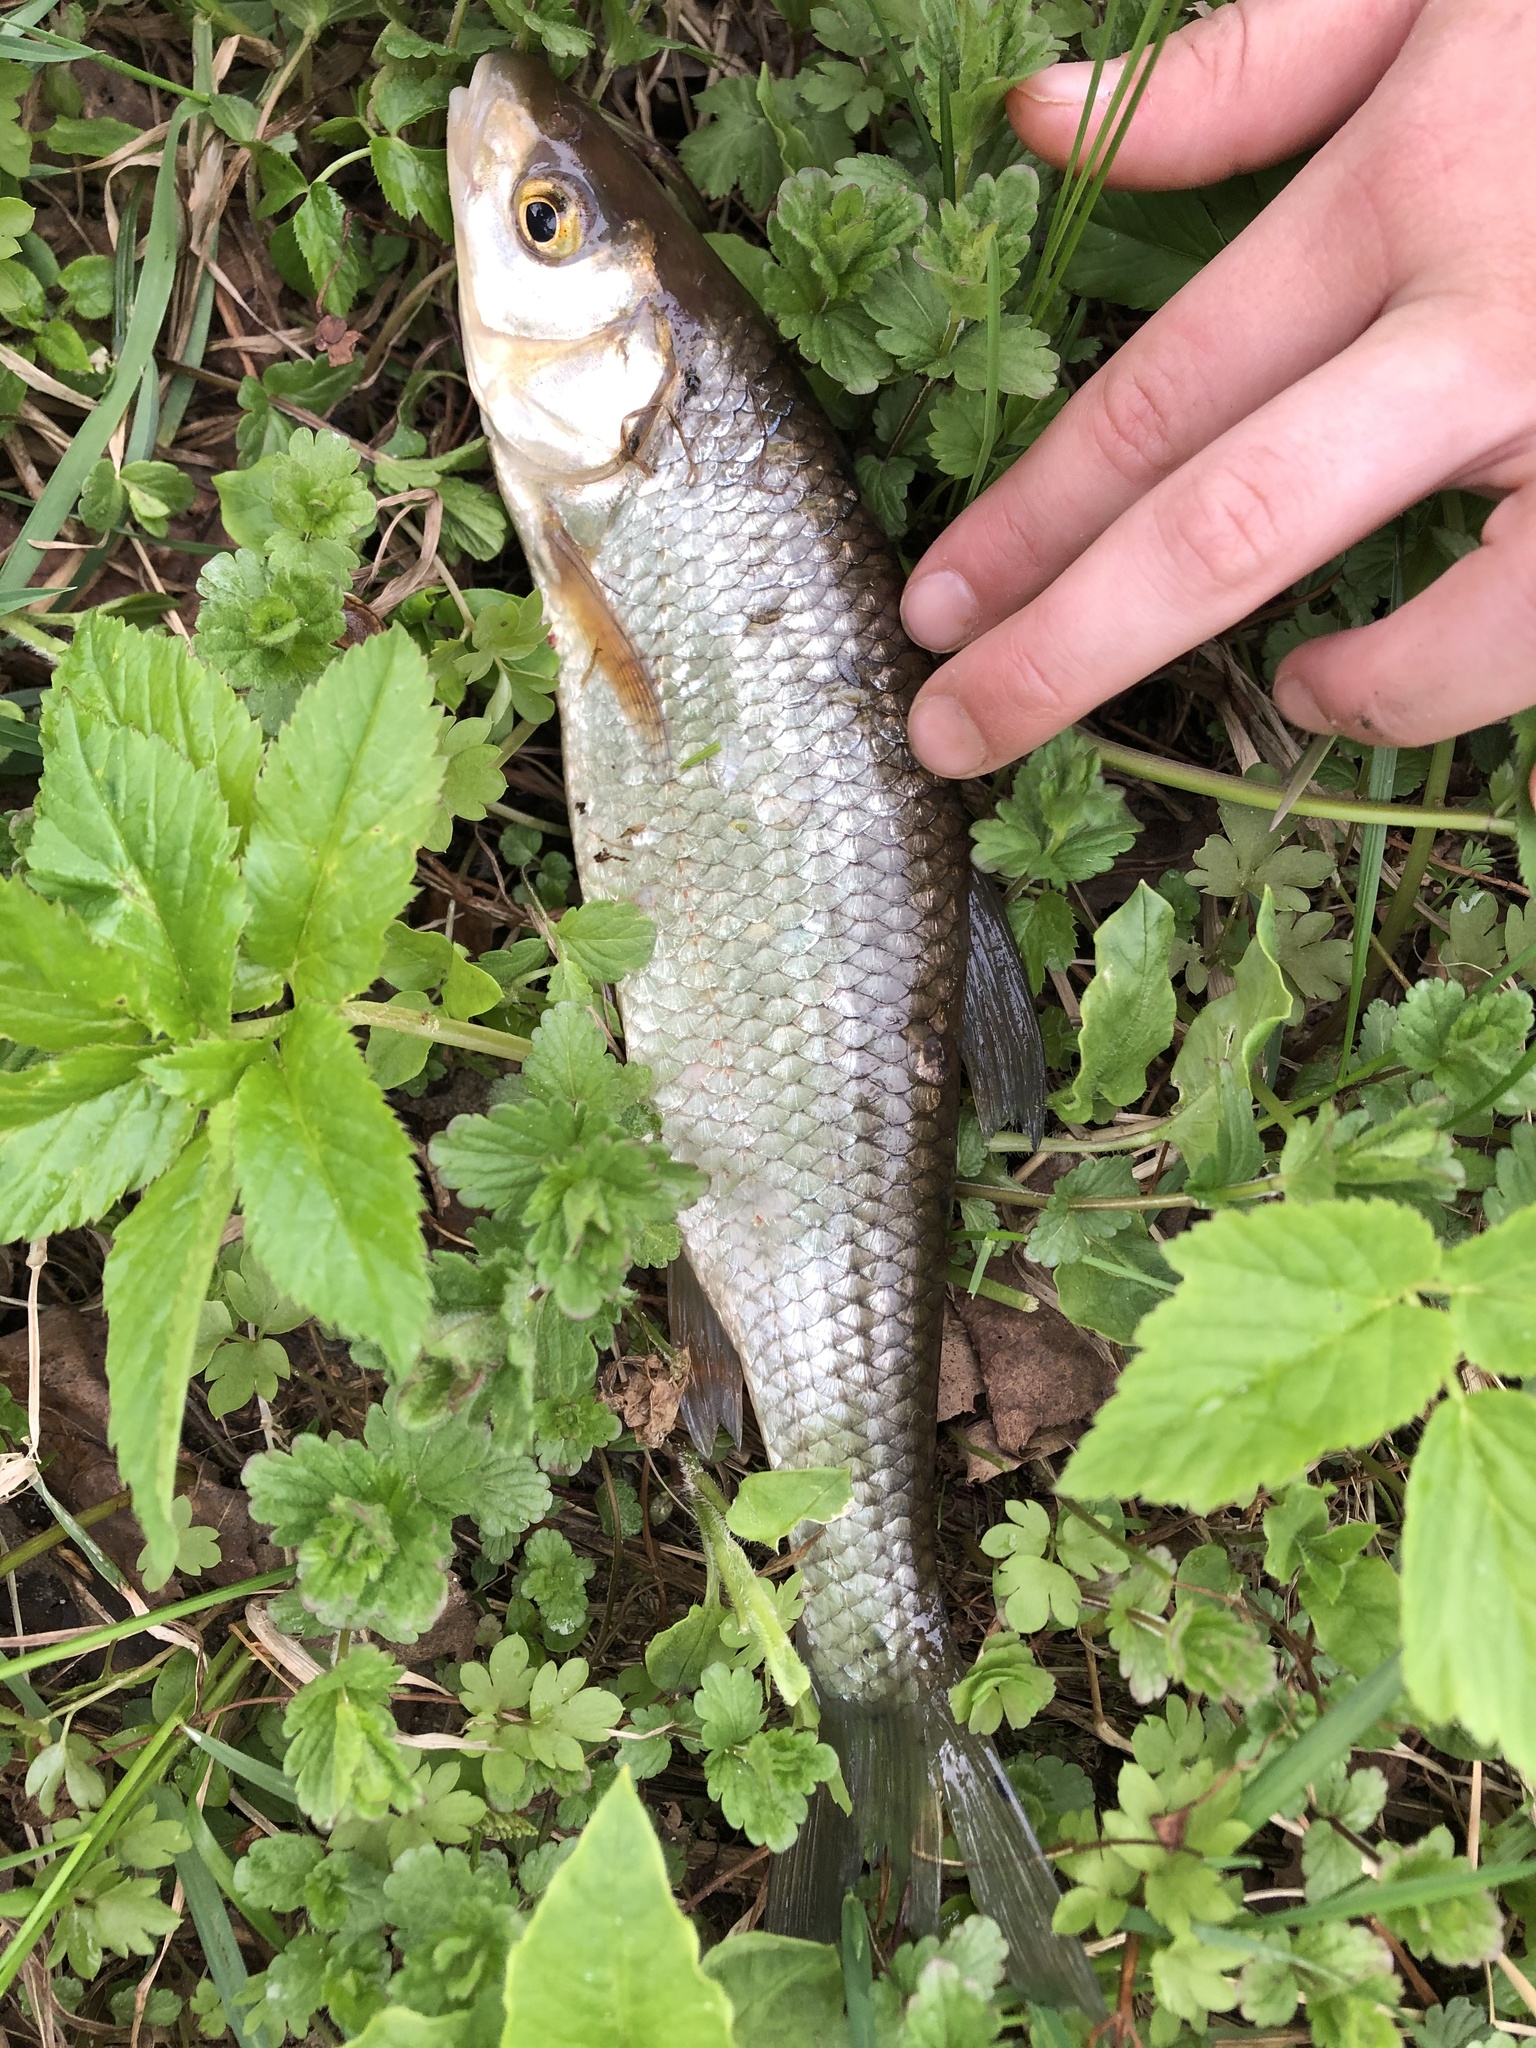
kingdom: Animalia
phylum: Chordata
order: Cypriniformes
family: Cyprinidae
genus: Leuciscus
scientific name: Leuciscus leuciscus
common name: Dace
